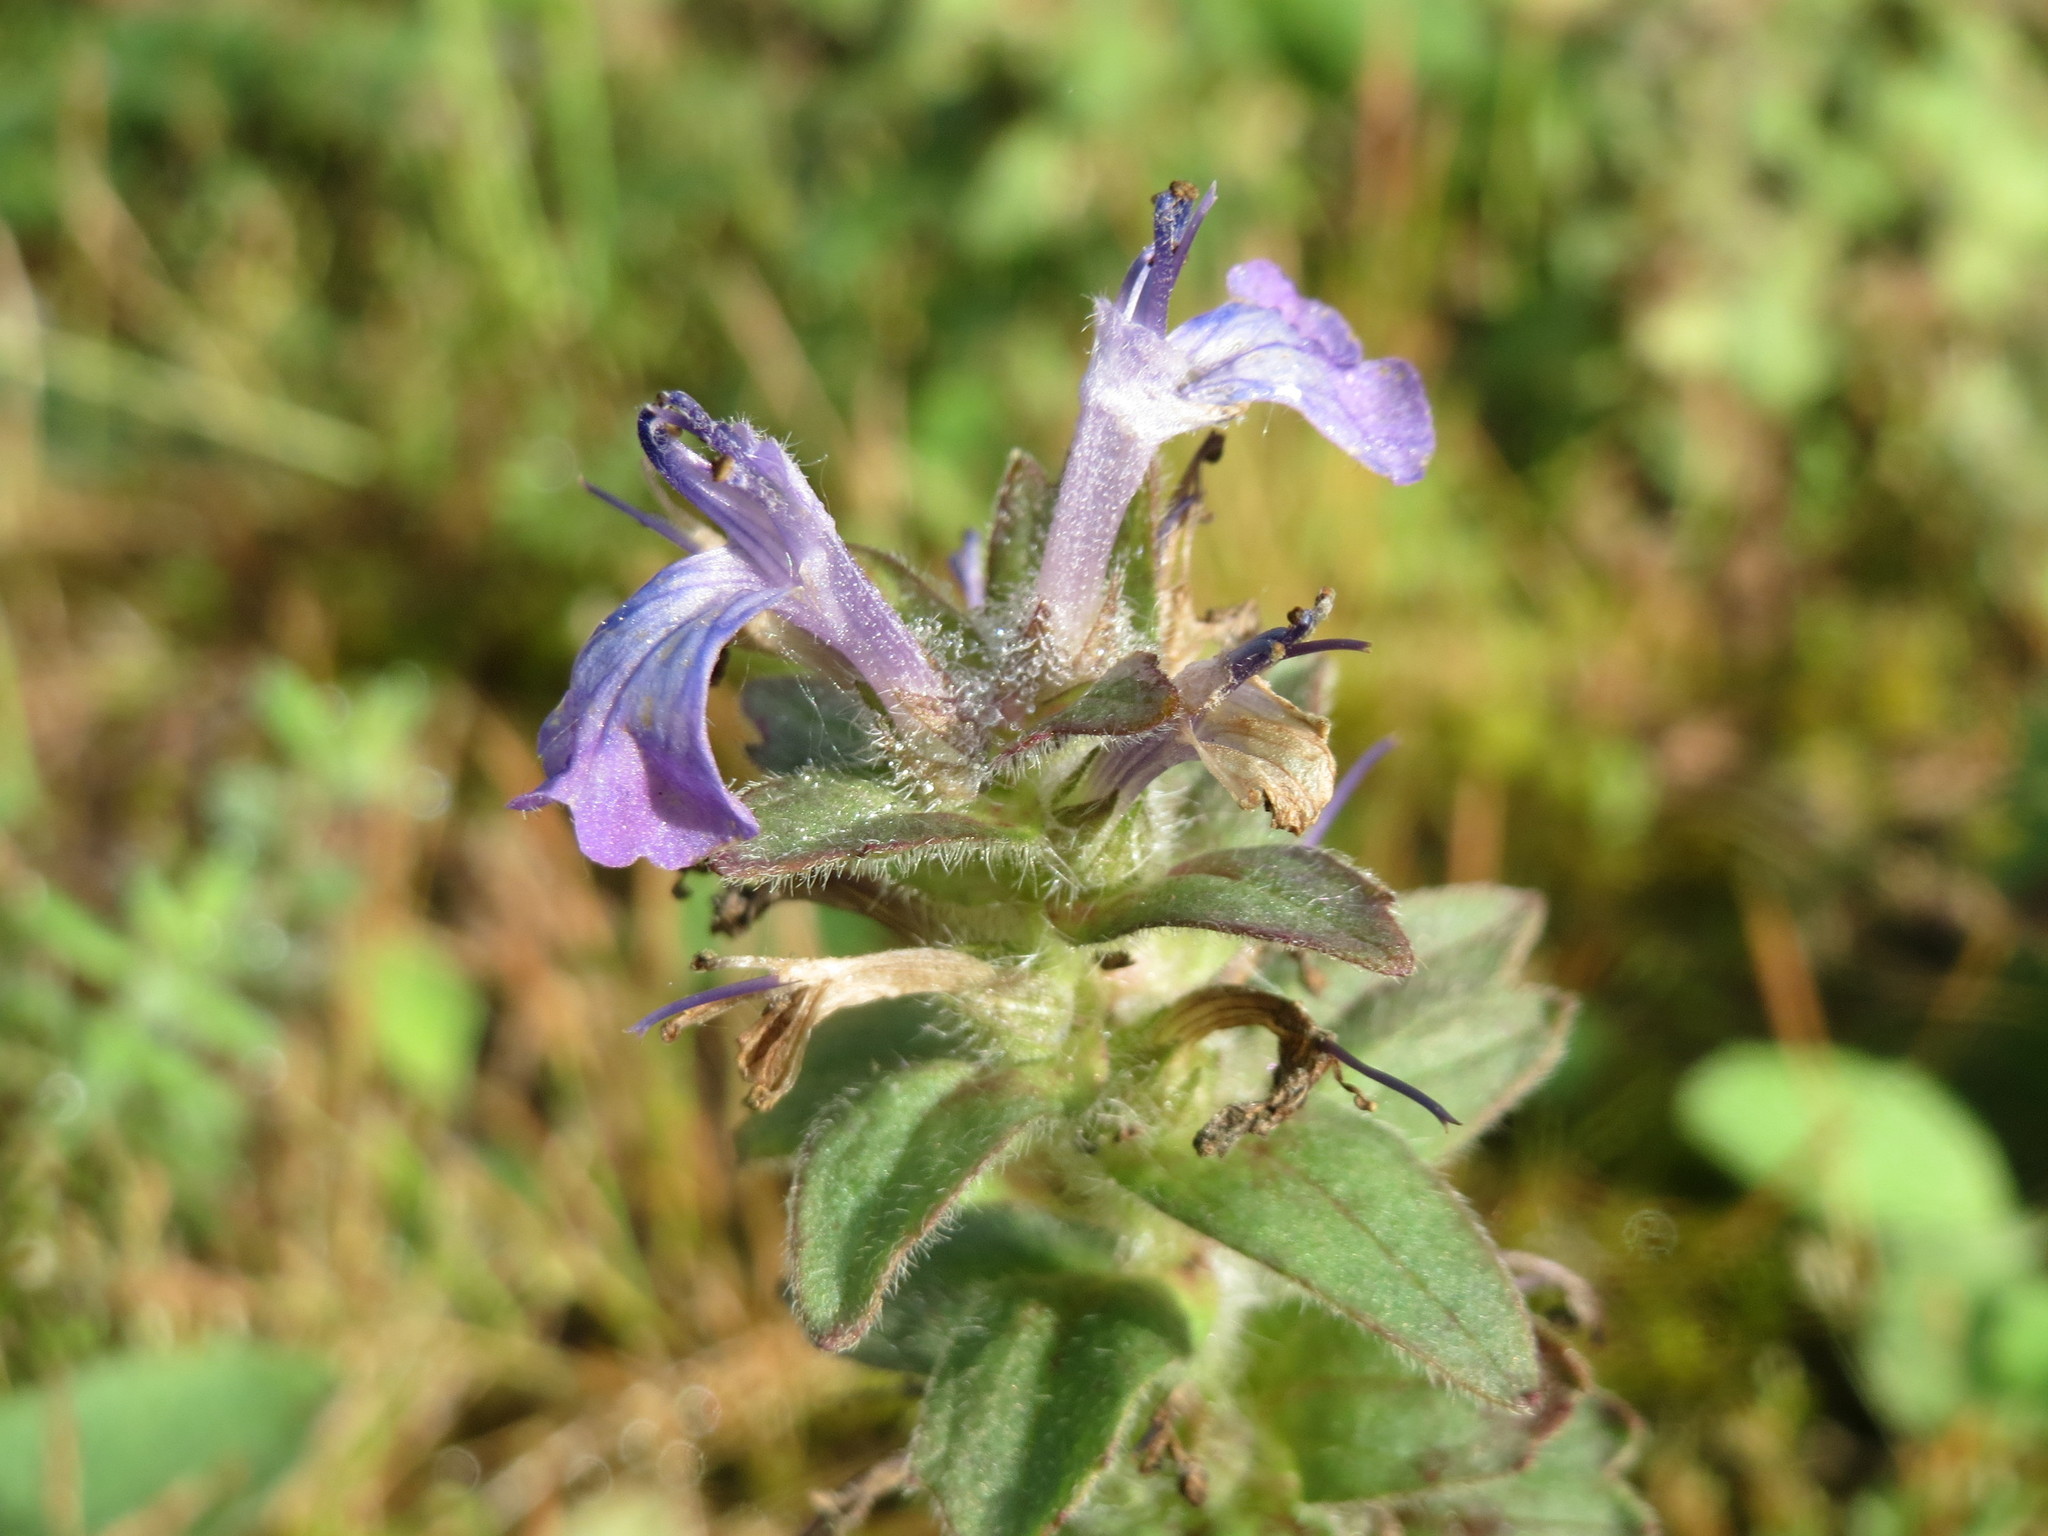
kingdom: Plantae
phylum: Tracheophyta
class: Magnoliopsida
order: Lamiales
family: Lamiaceae
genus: Ajuga
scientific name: Ajuga genevensis
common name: Blue bugle
